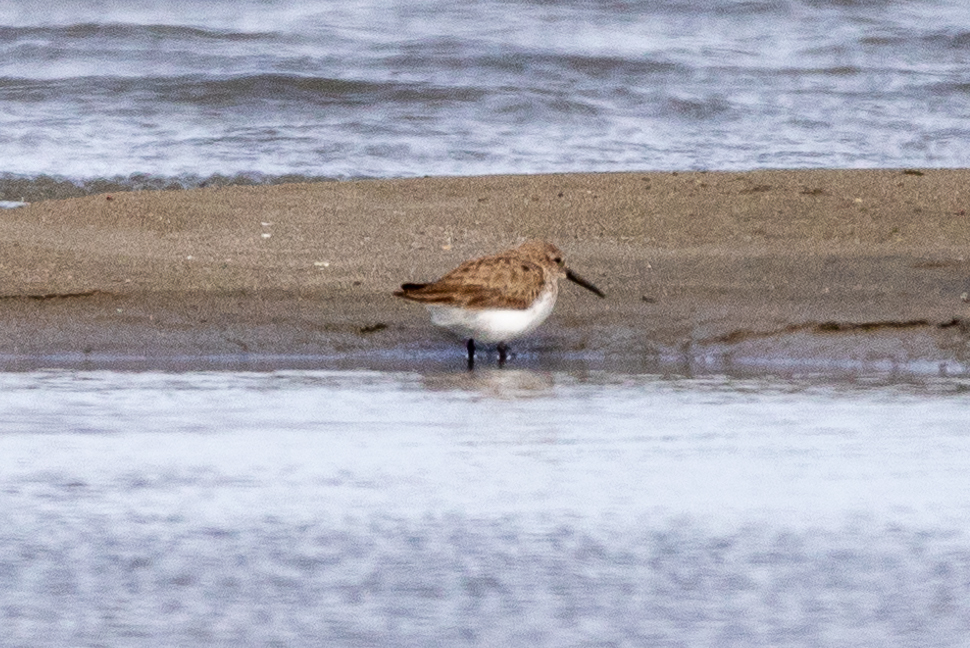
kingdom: Animalia
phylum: Chordata
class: Aves
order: Charadriiformes
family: Scolopacidae
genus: Calidris
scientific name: Calidris alpina
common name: Dunlin
